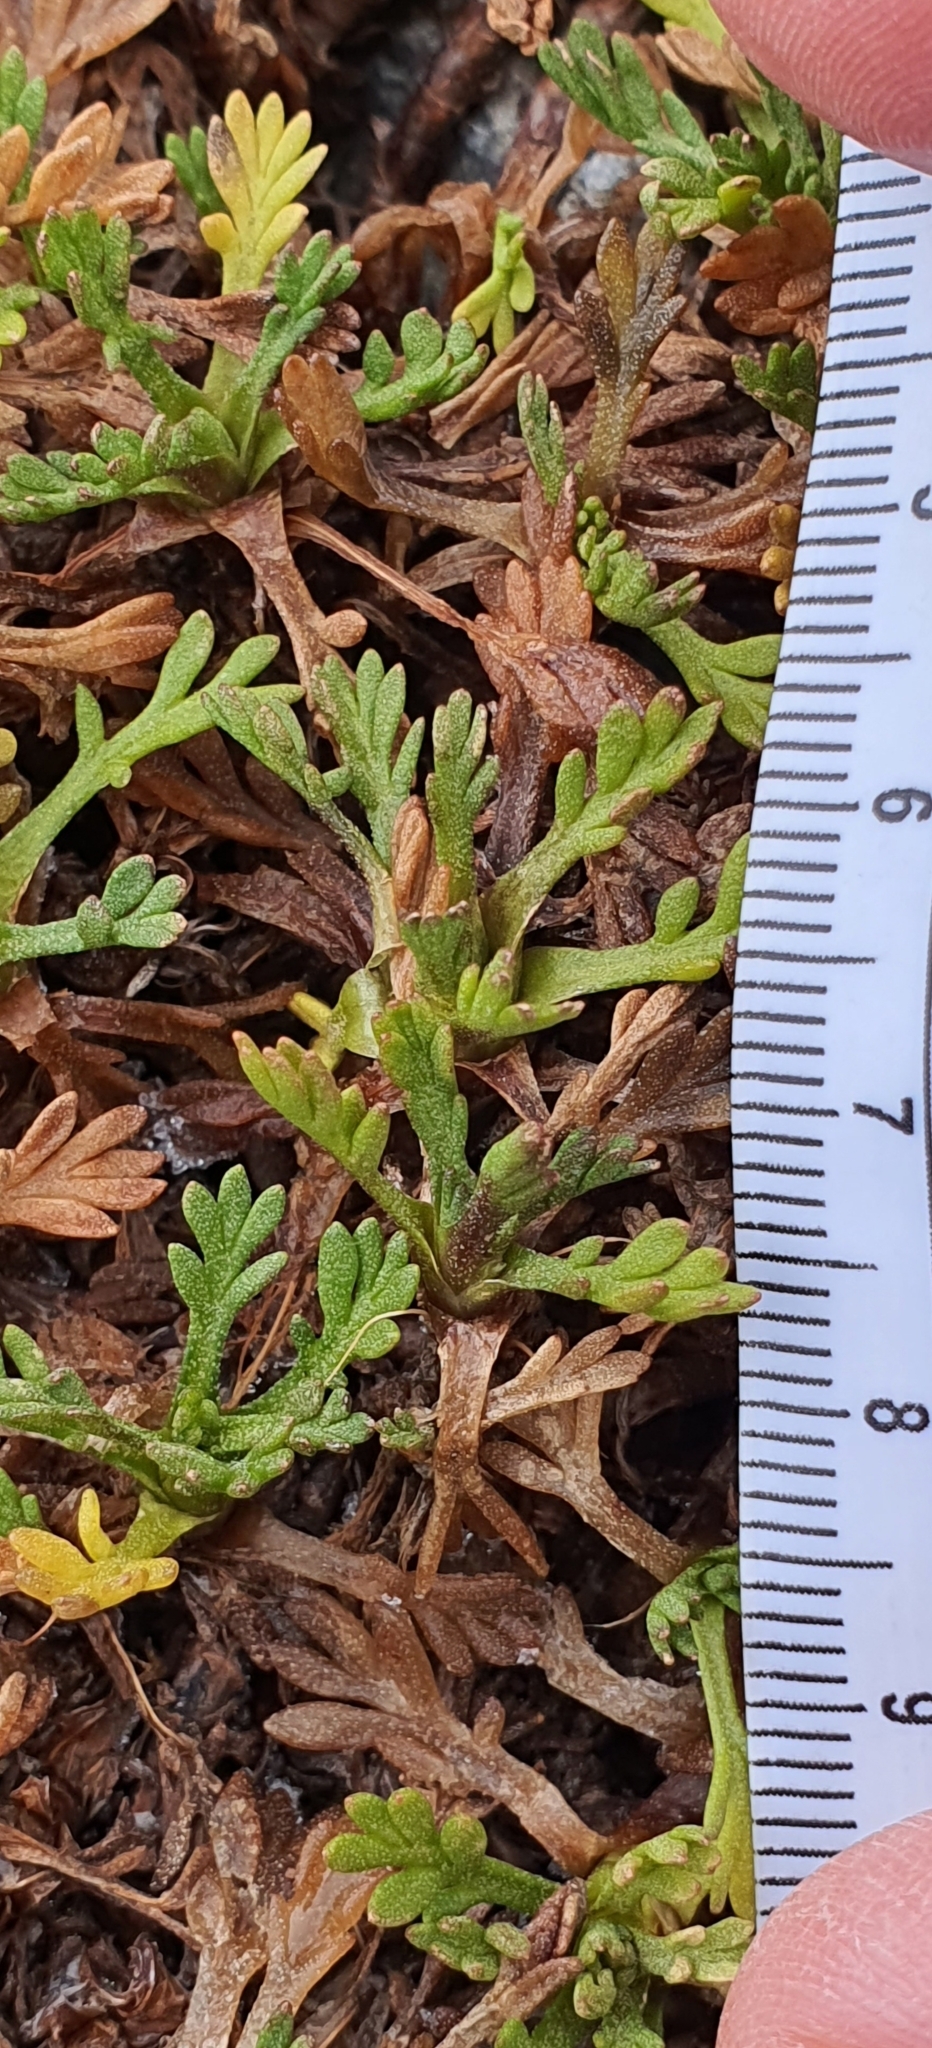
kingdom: Plantae
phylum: Tracheophyta
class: Magnoliopsida
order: Asterales
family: Asteraceae
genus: Leptinella
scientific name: Leptinella pyrethrifolia
